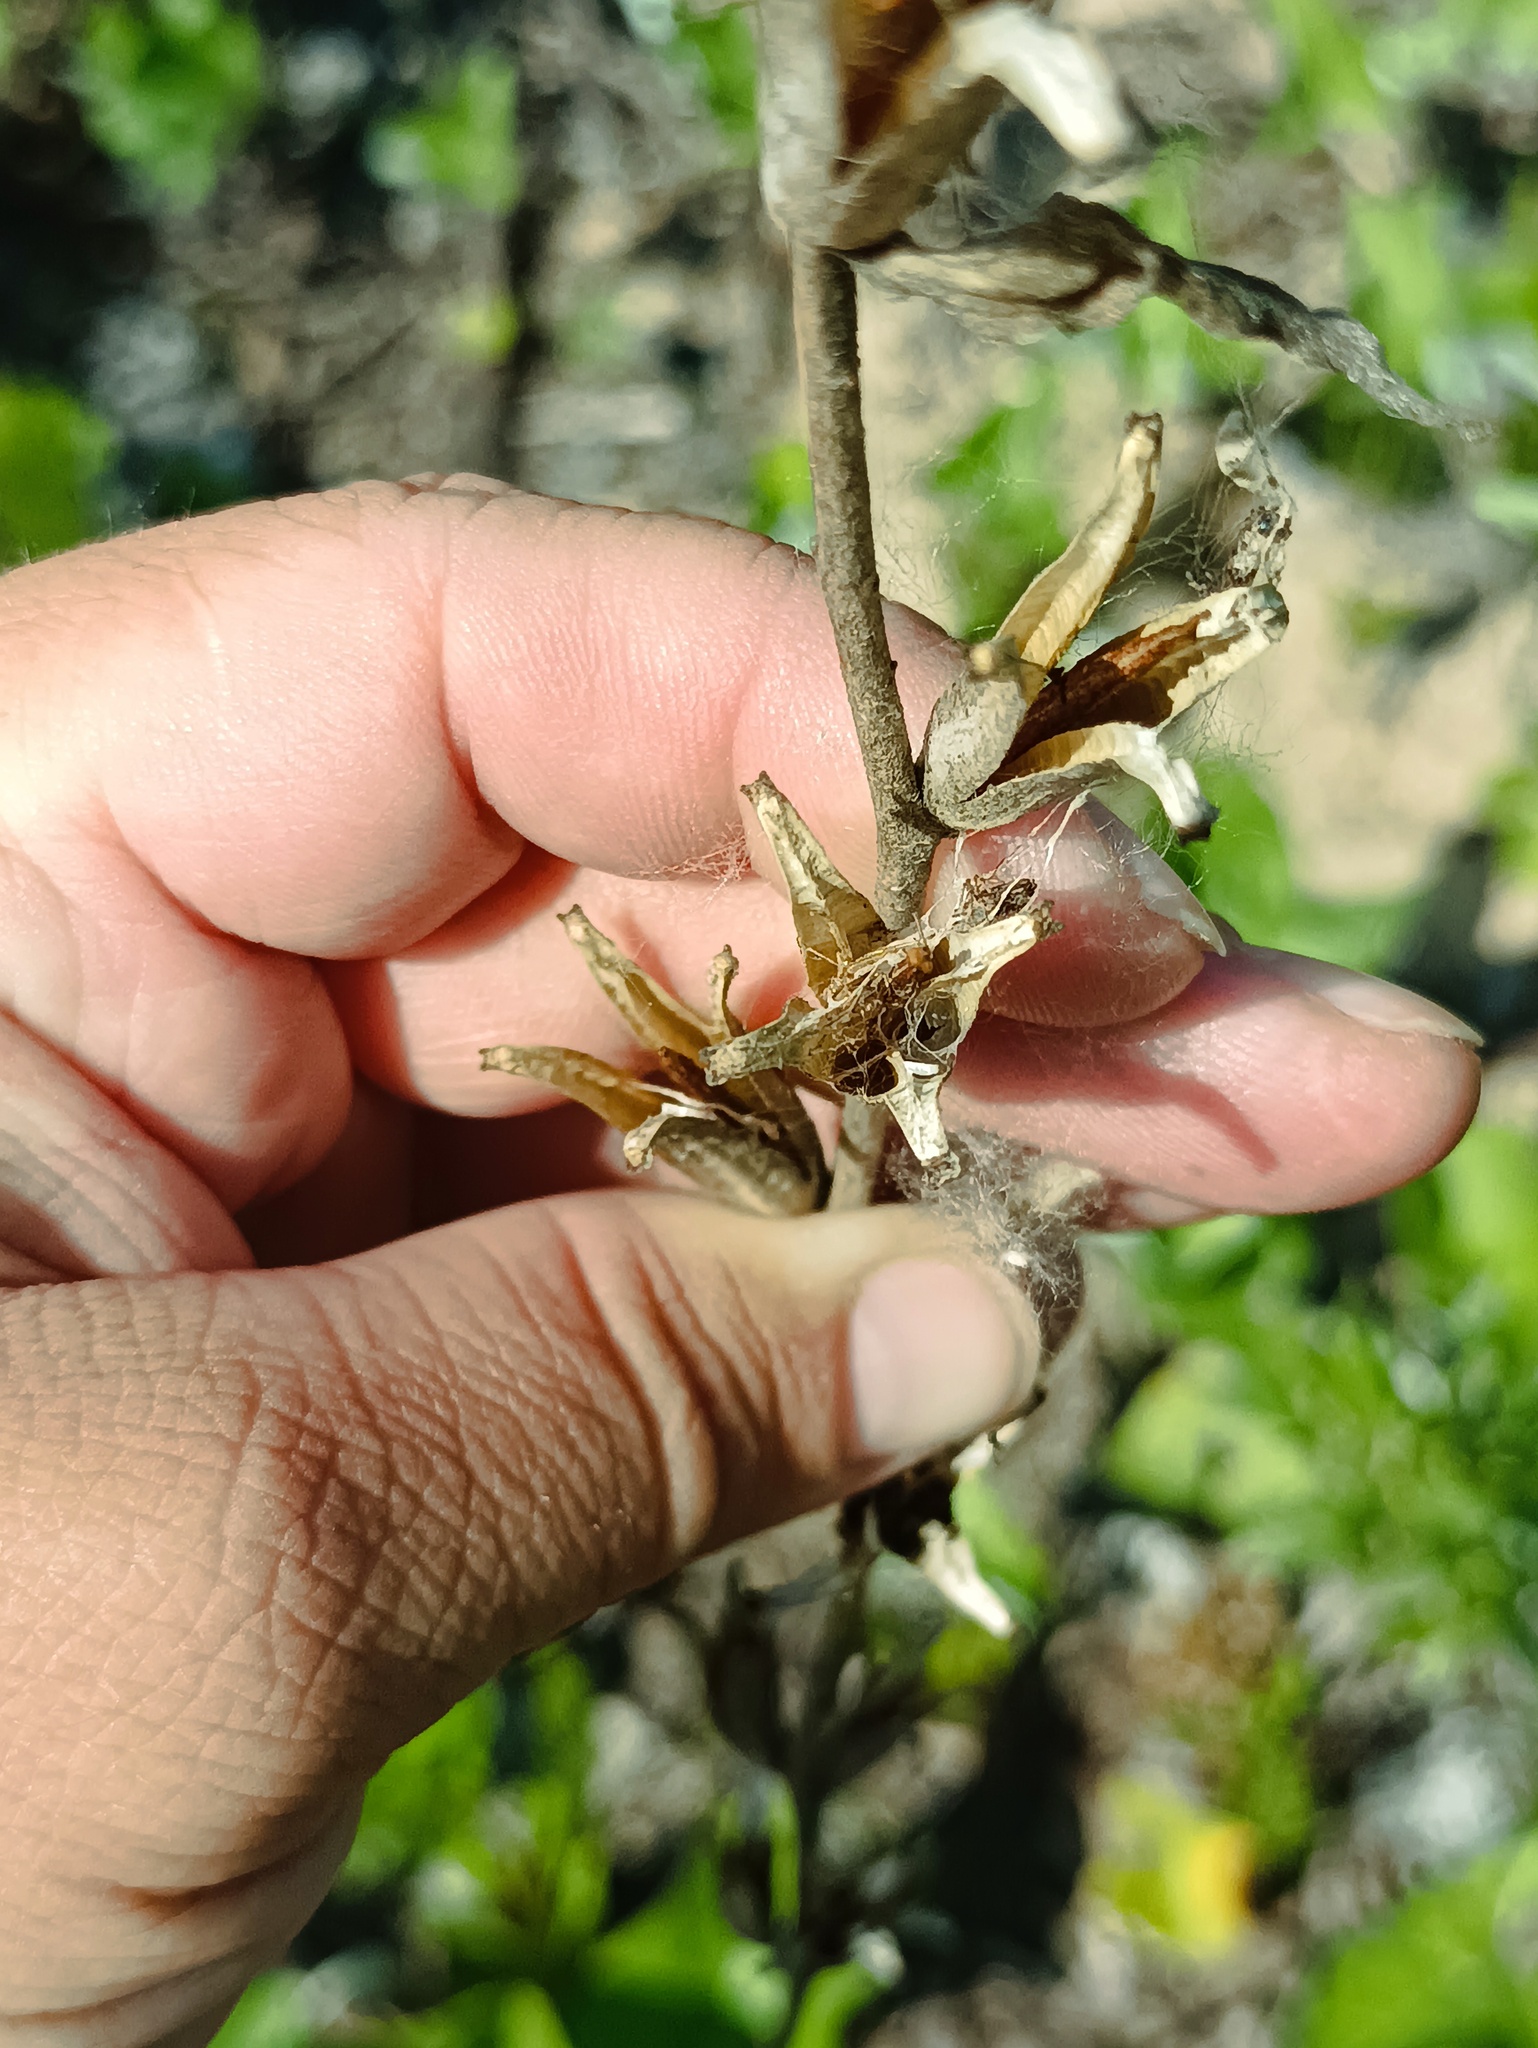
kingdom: Plantae
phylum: Tracheophyta
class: Magnoliopsida
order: Myrtales
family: Onagraceae
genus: Oenothera
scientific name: Oenothera
